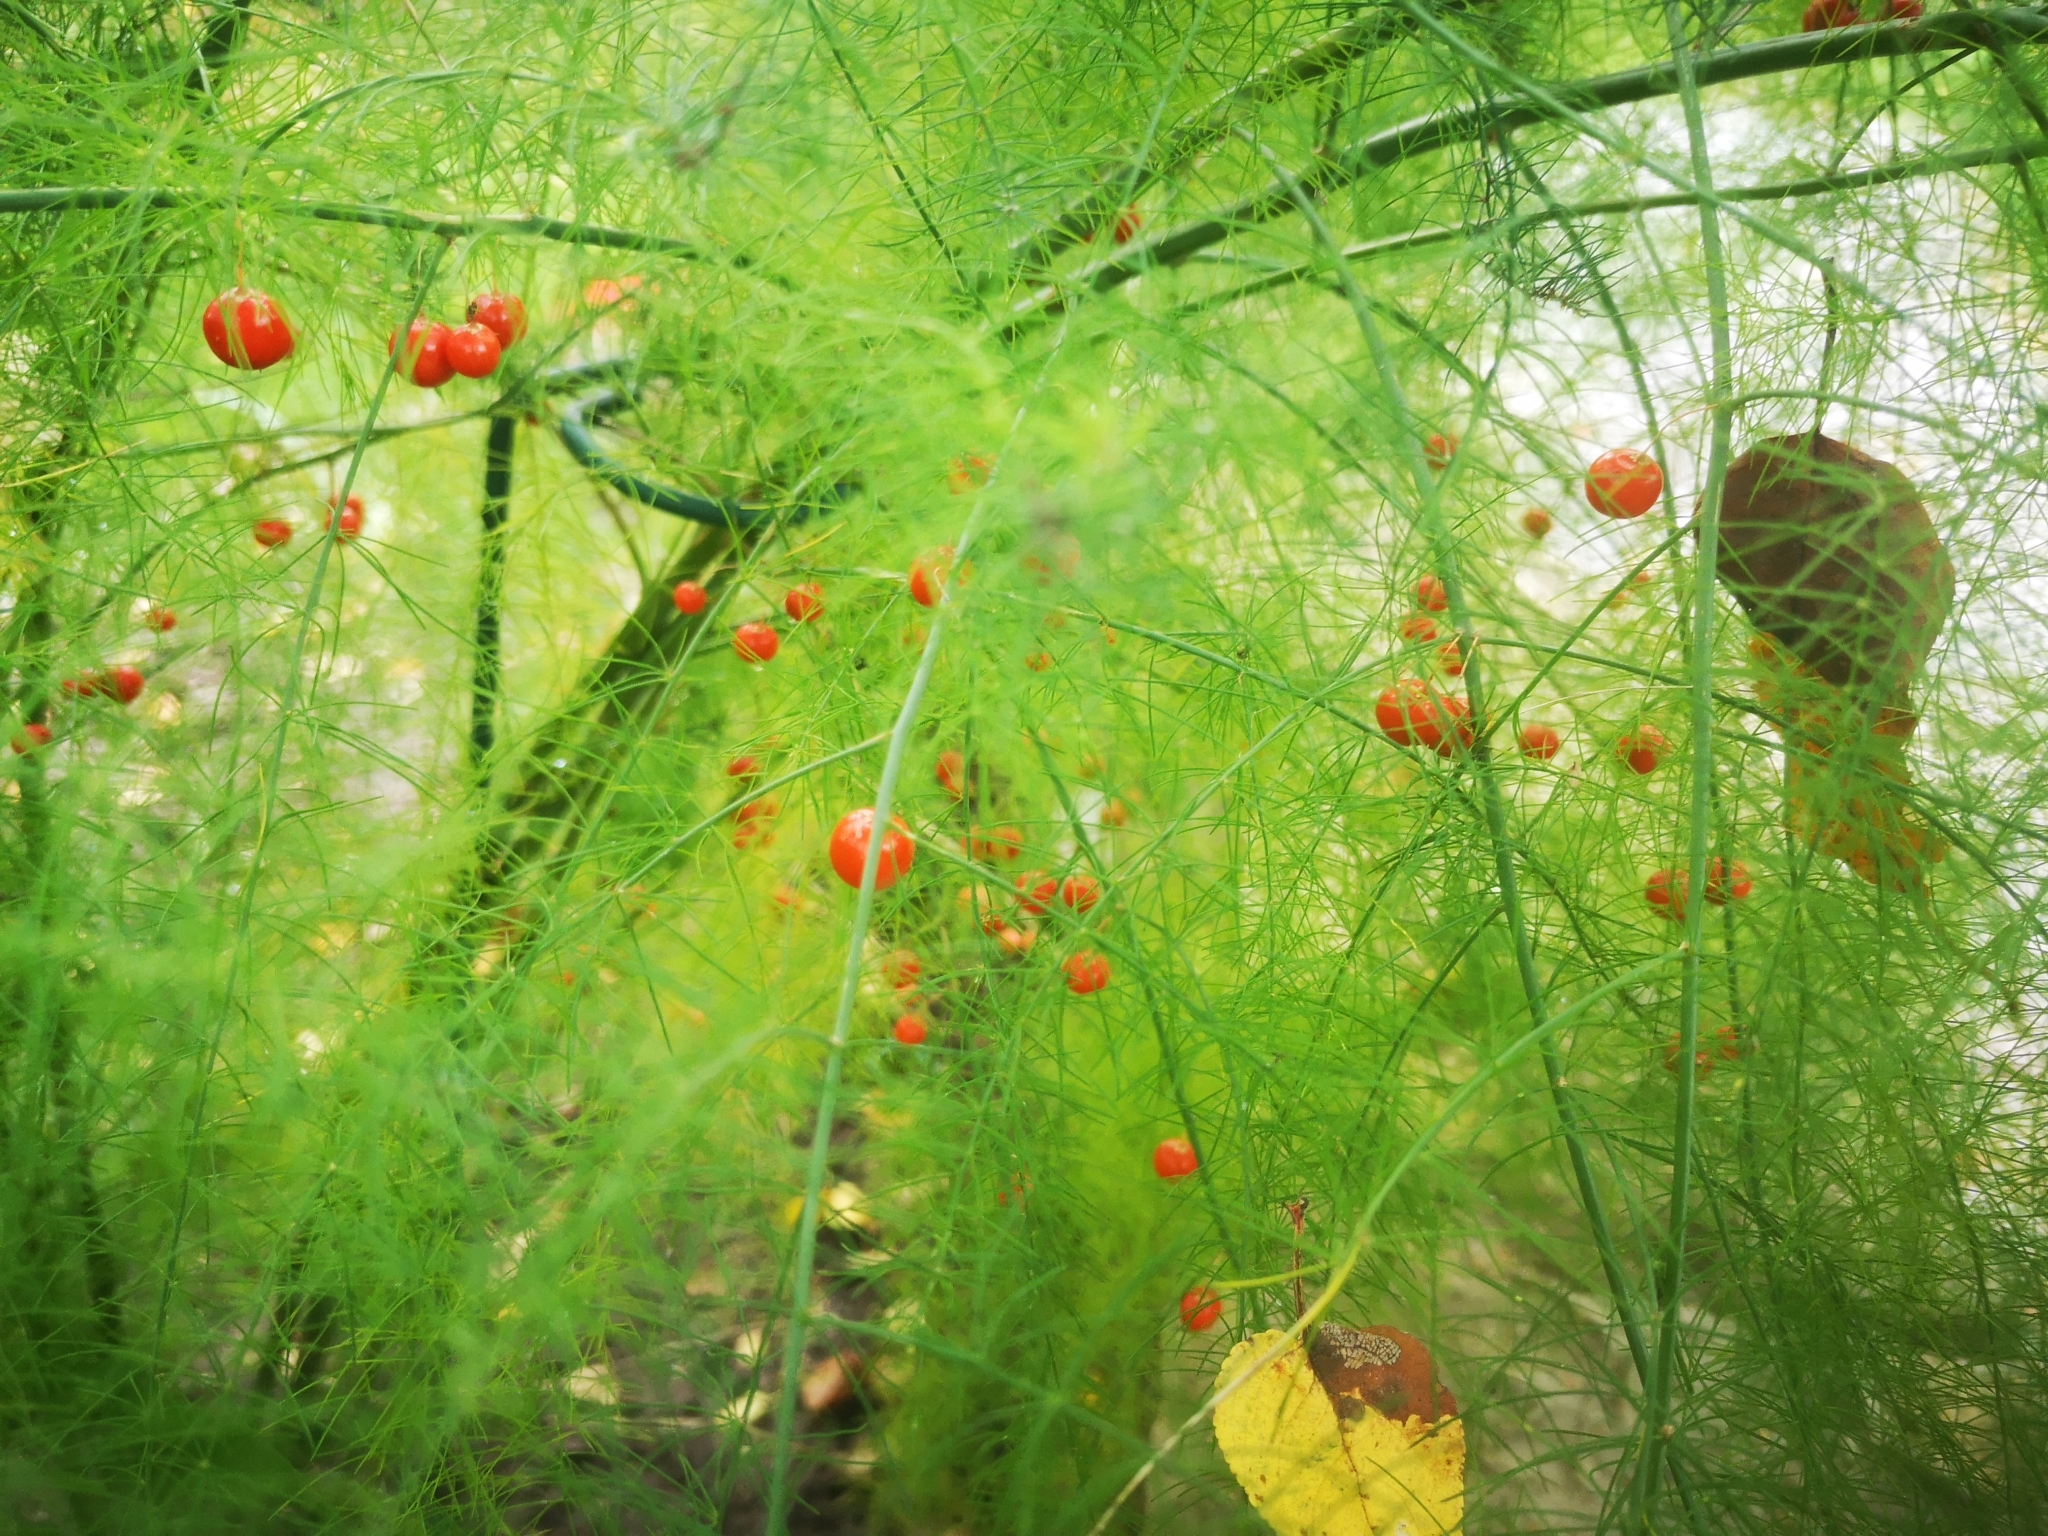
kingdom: Plantae
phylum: Tracheophyta
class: Liliopsida
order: Asparagales
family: Asparagaceae
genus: Asparagus
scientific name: Asparagus officinalis
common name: Garden asparagus
